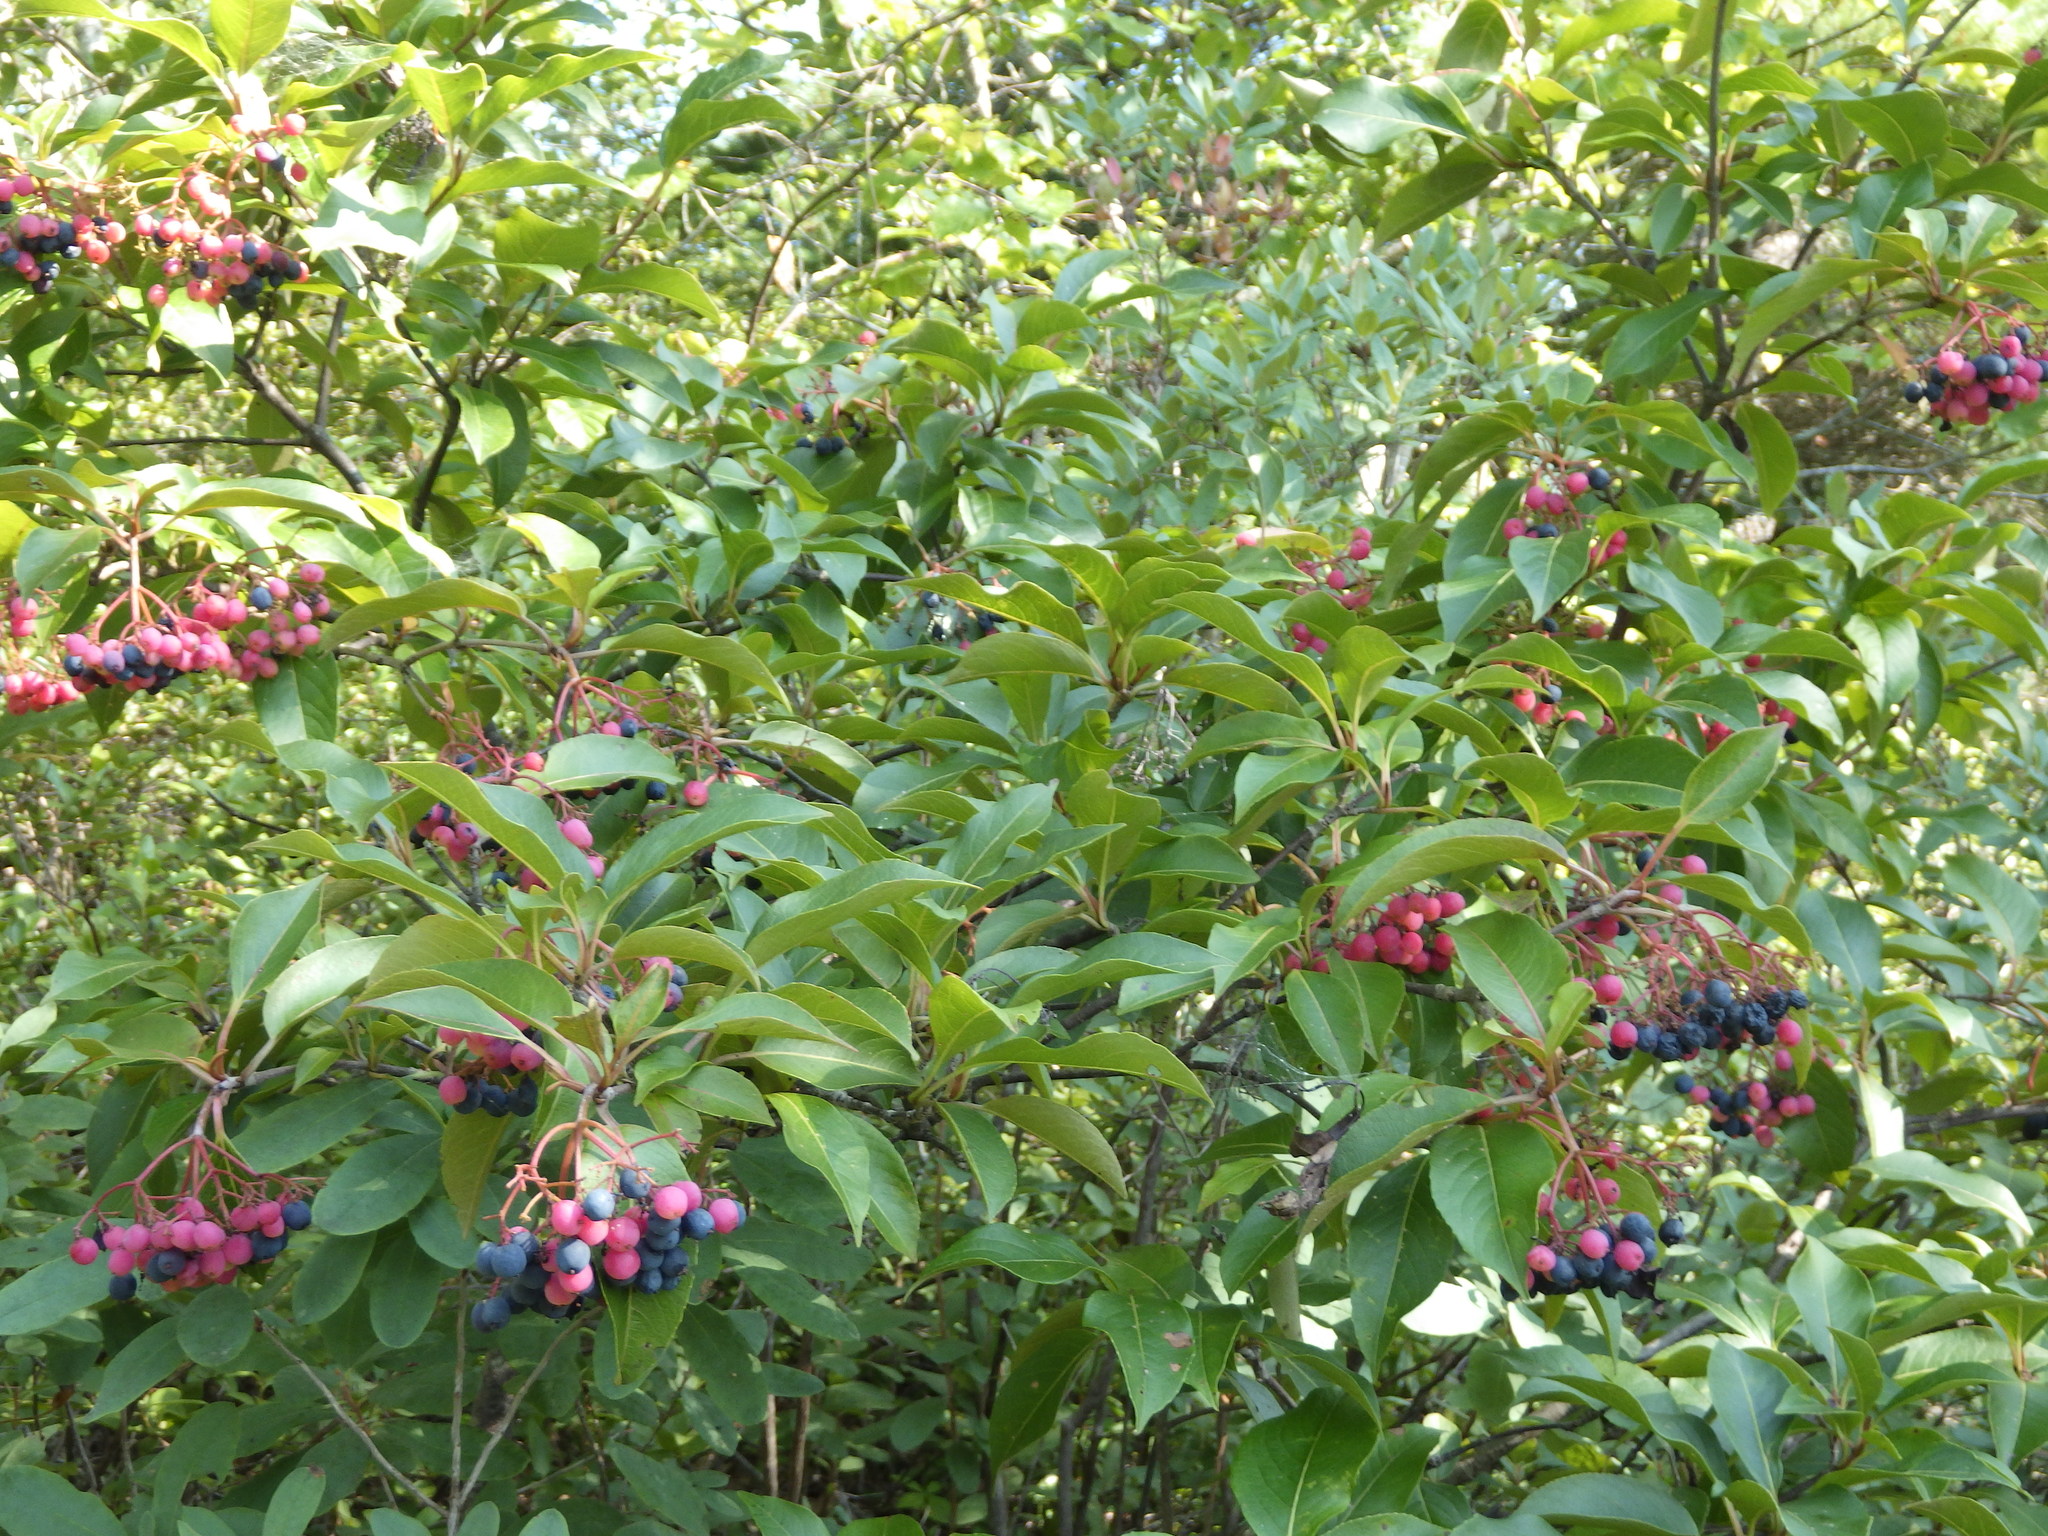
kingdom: Plantae
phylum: Tracheophyta
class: Magnoliopsida
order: Dipsacales
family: Viburnaceae
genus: Viburnum
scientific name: Viburnum cassinoides
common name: Swamp haw
